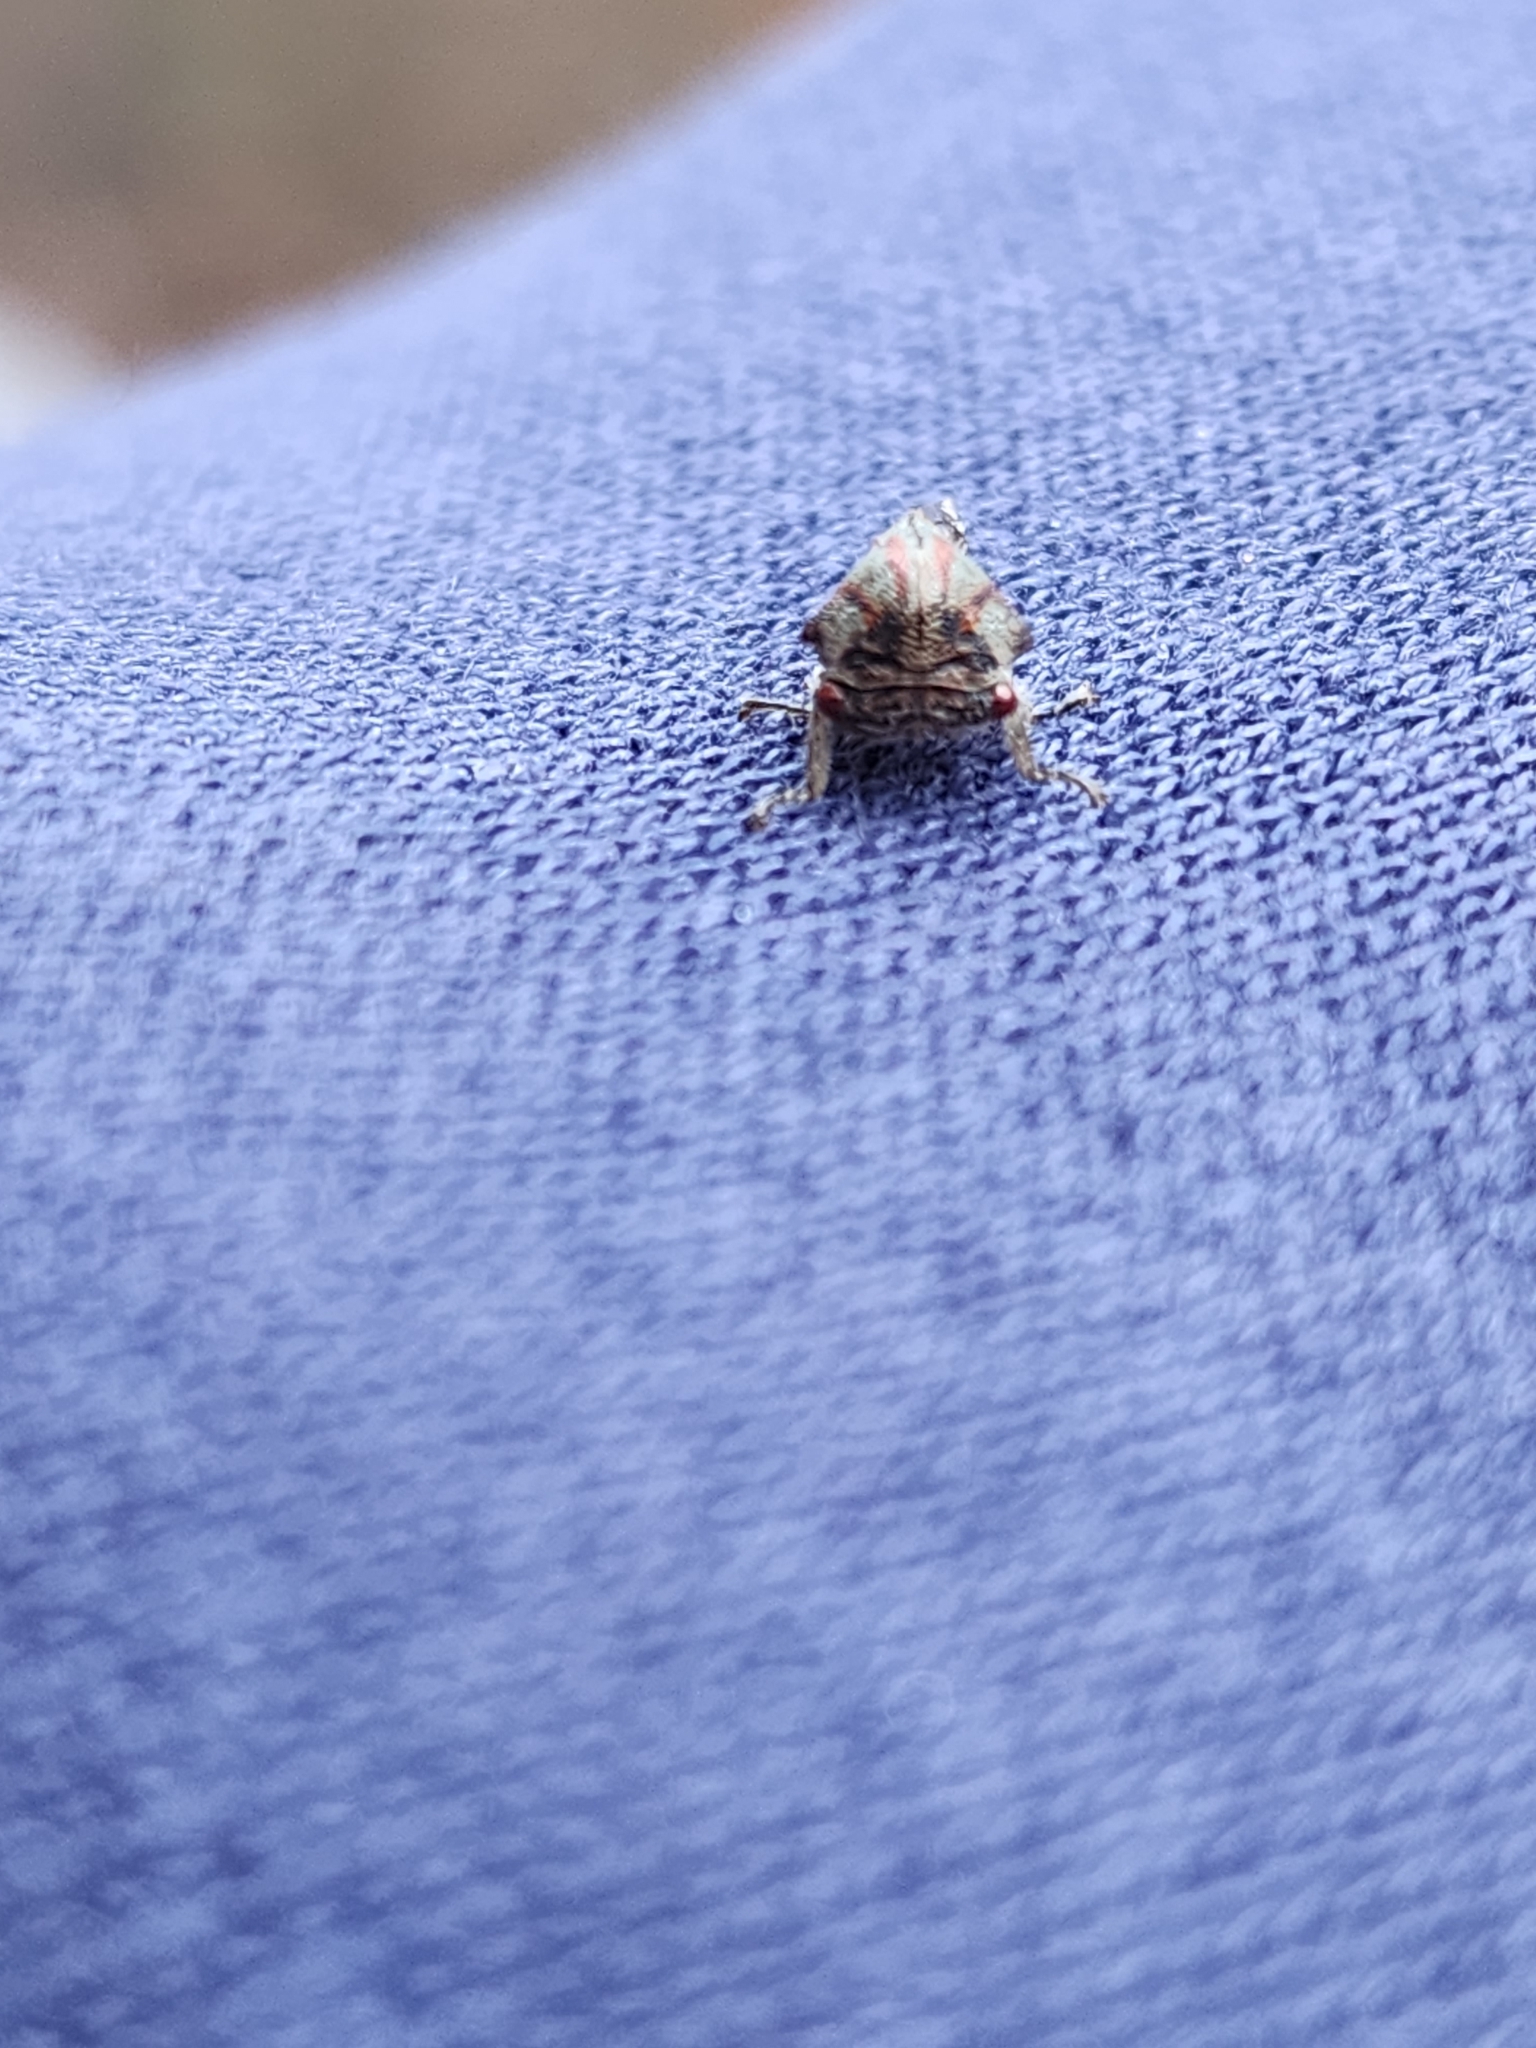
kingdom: Animalia
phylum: Arthropoda
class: Insecta
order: Hemiptera
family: Membracidae
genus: Platycotis
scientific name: Platycotis vittatus
